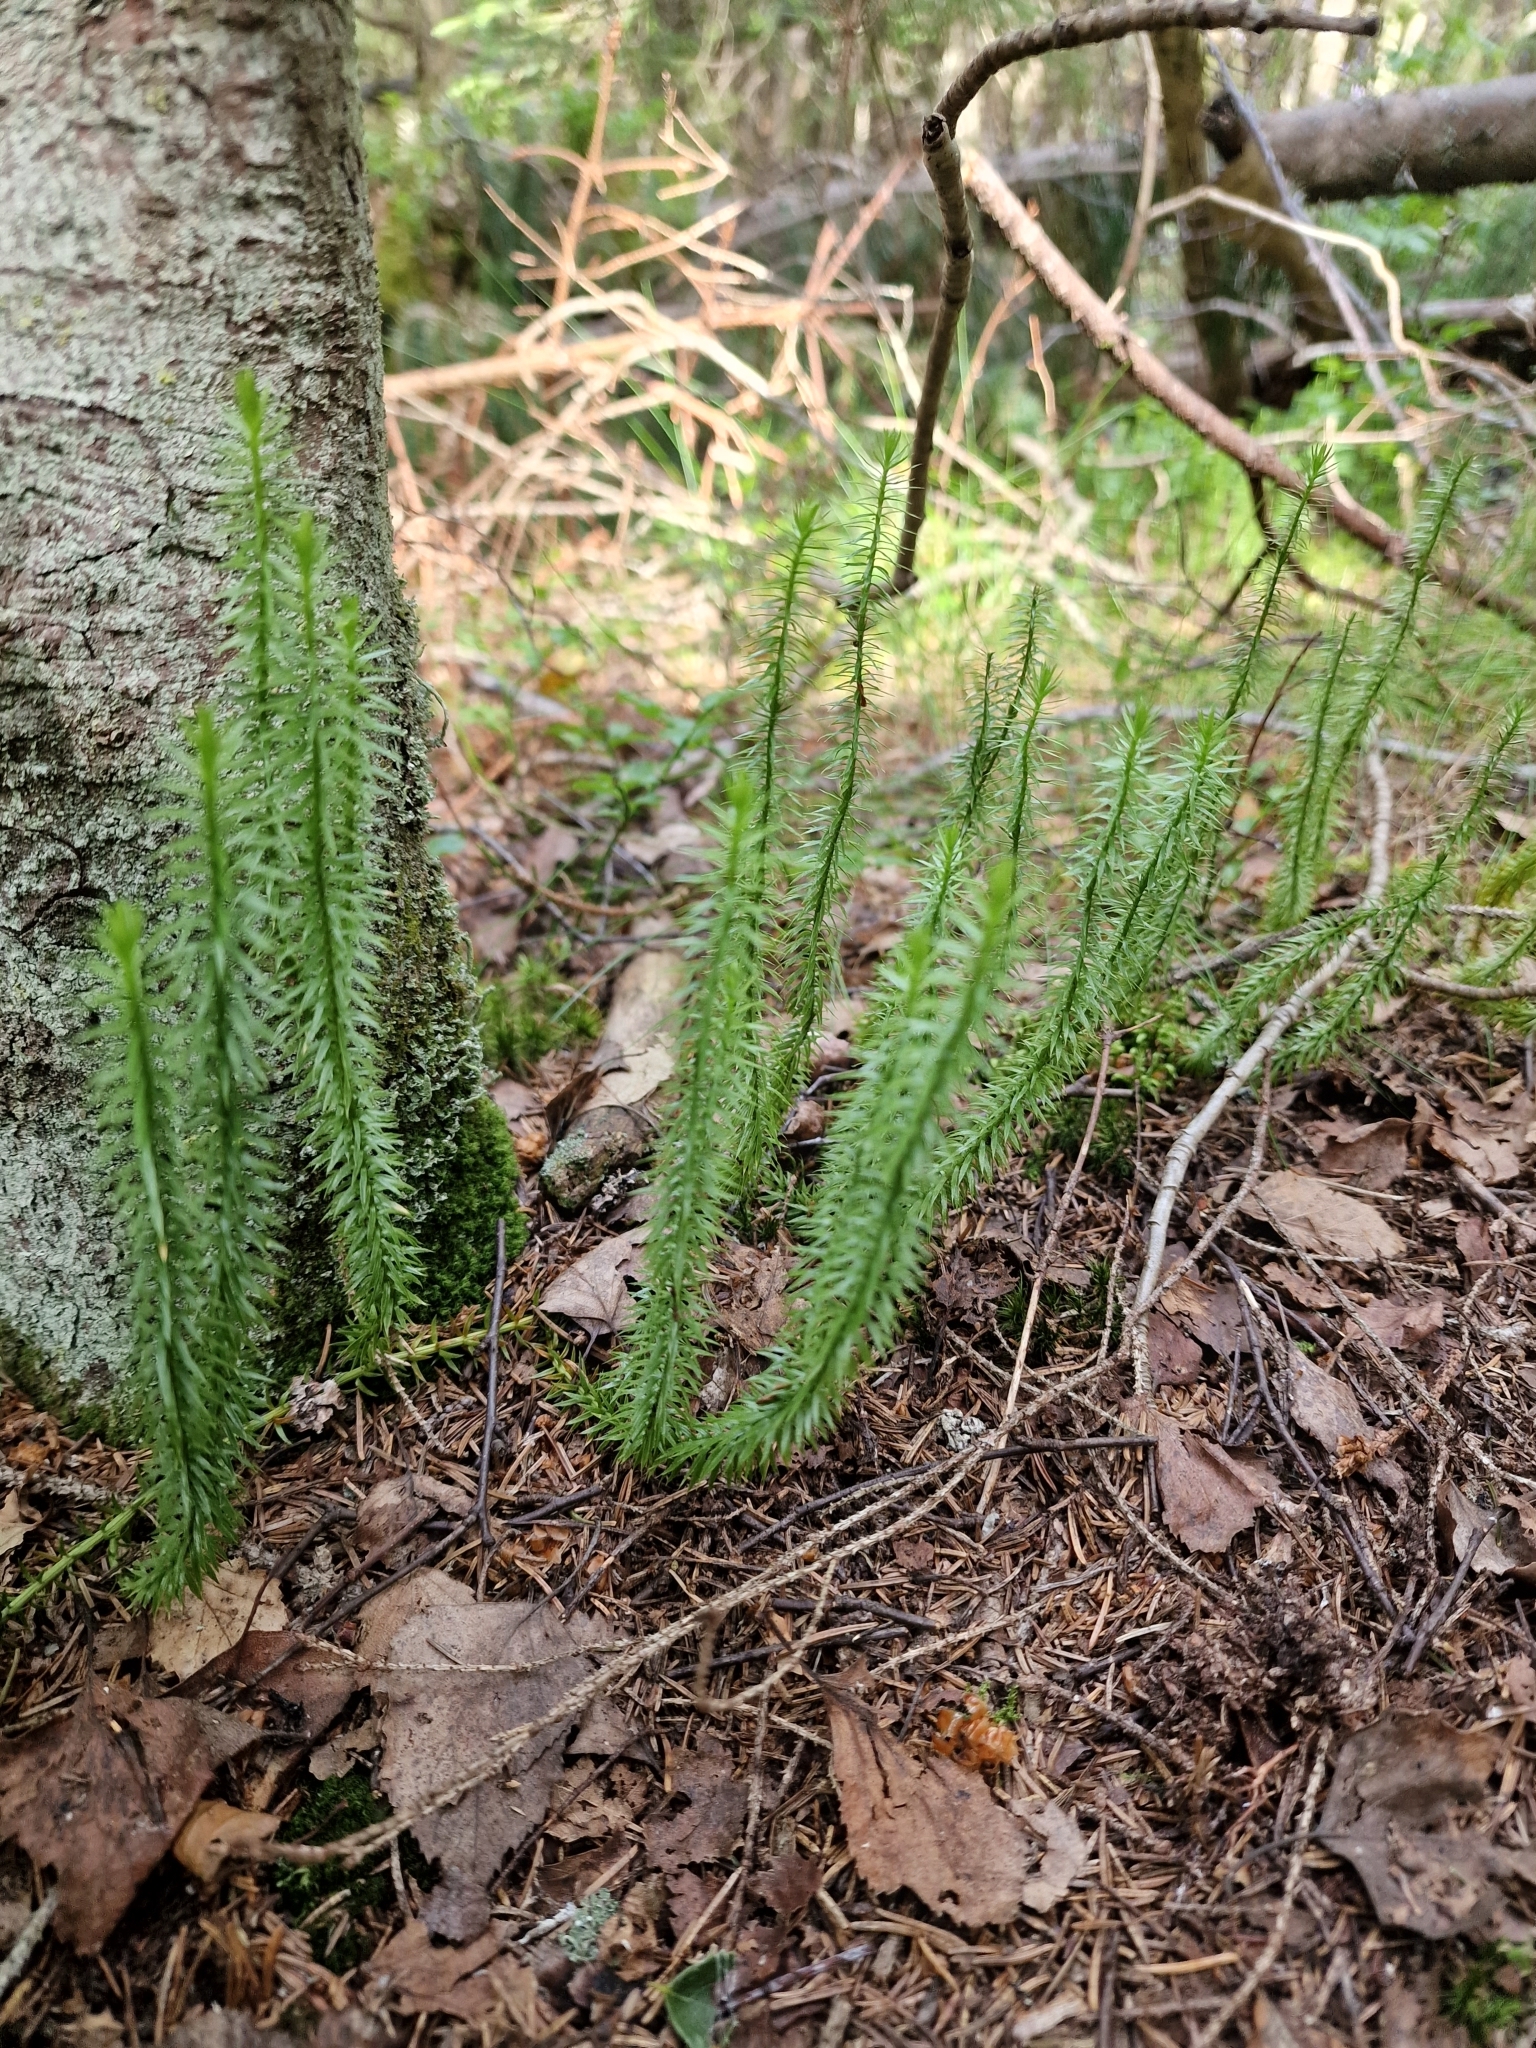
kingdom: Plantae
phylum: Tracheophyta
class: Lycopodiopsida
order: Lycopodiales
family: Lycopodiaceae
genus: Spinulum
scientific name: Spinulum annotinum
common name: Interrupted club-moss
